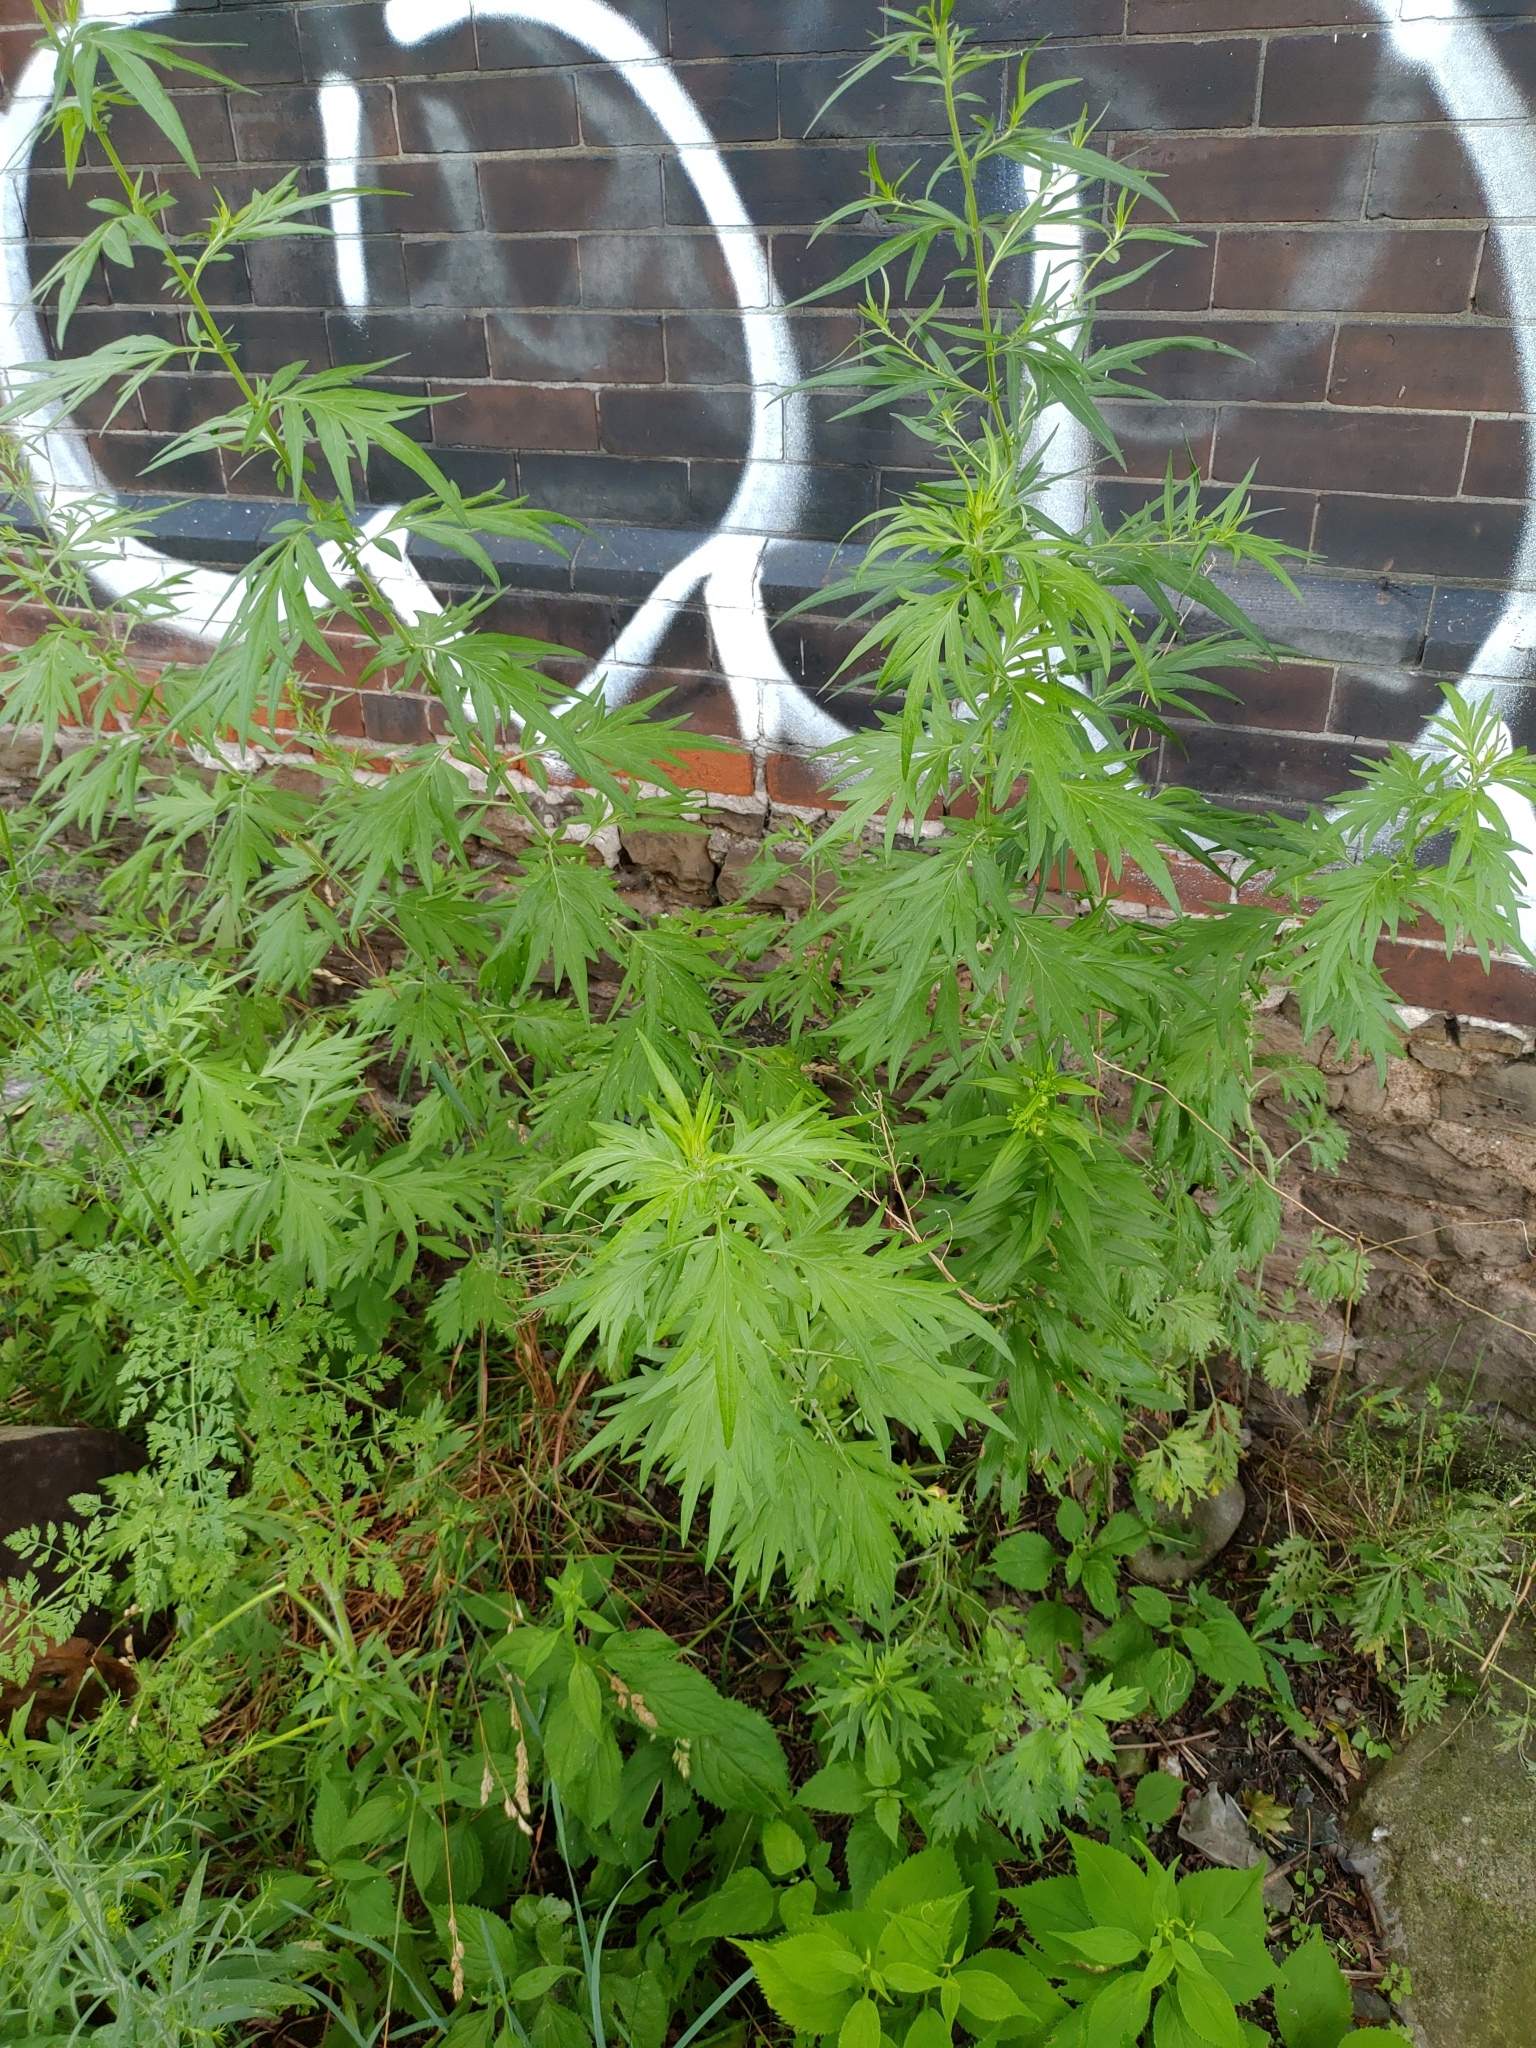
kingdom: Plantae
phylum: Tracheophyta
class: Magnoliopsida
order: Asterales
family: Asteraceae
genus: Artemisia
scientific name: Artemisia vulgaris
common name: Mugwort
